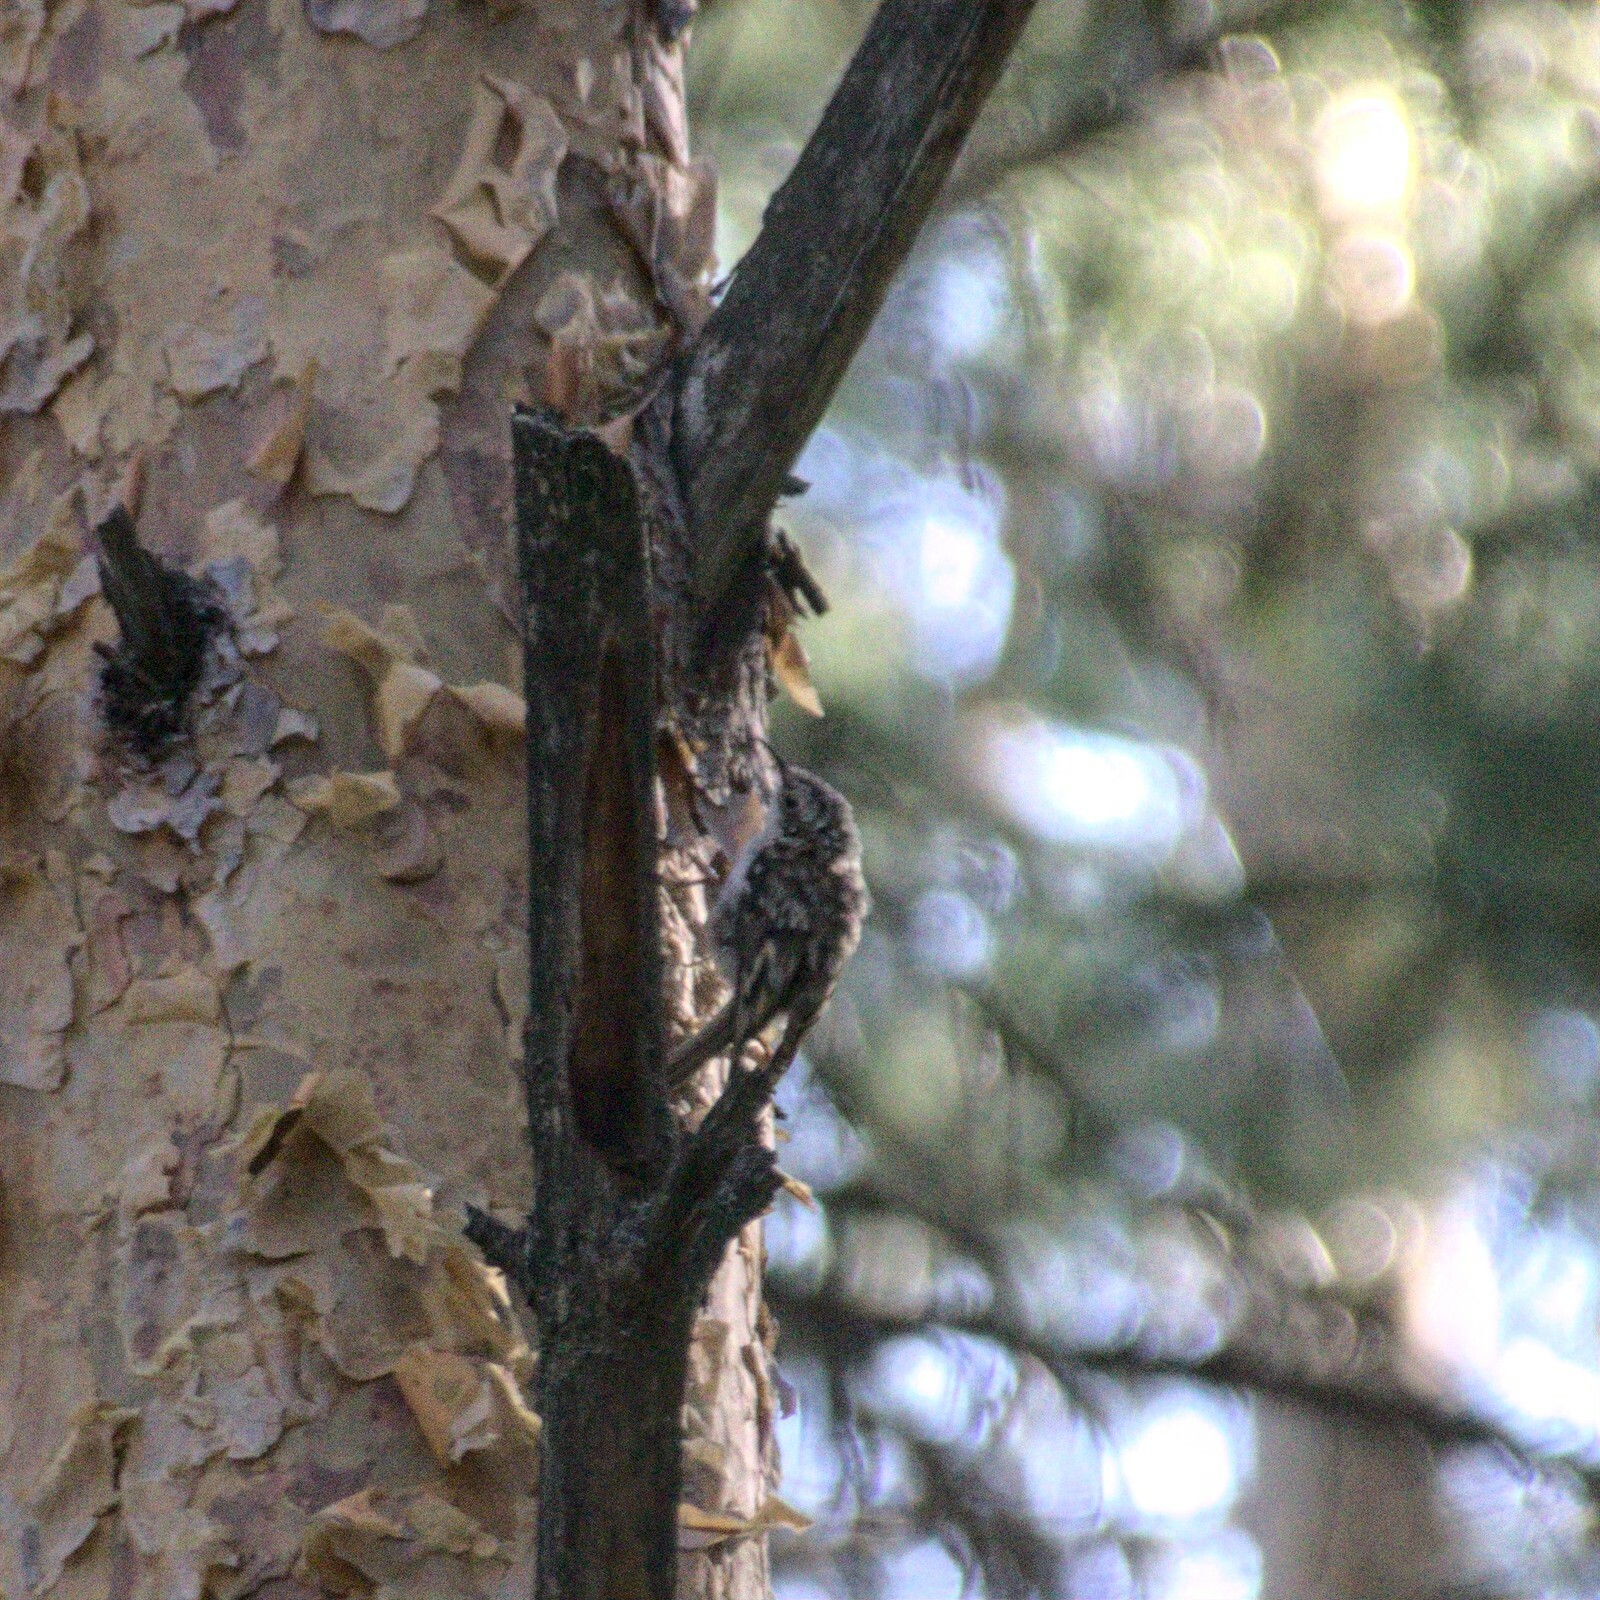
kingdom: Animalia
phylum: Chordata
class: Aves
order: Passeriformes
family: Certhiidae
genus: Certhia
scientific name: Certhia familiaris
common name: Eurasian treecreeper
